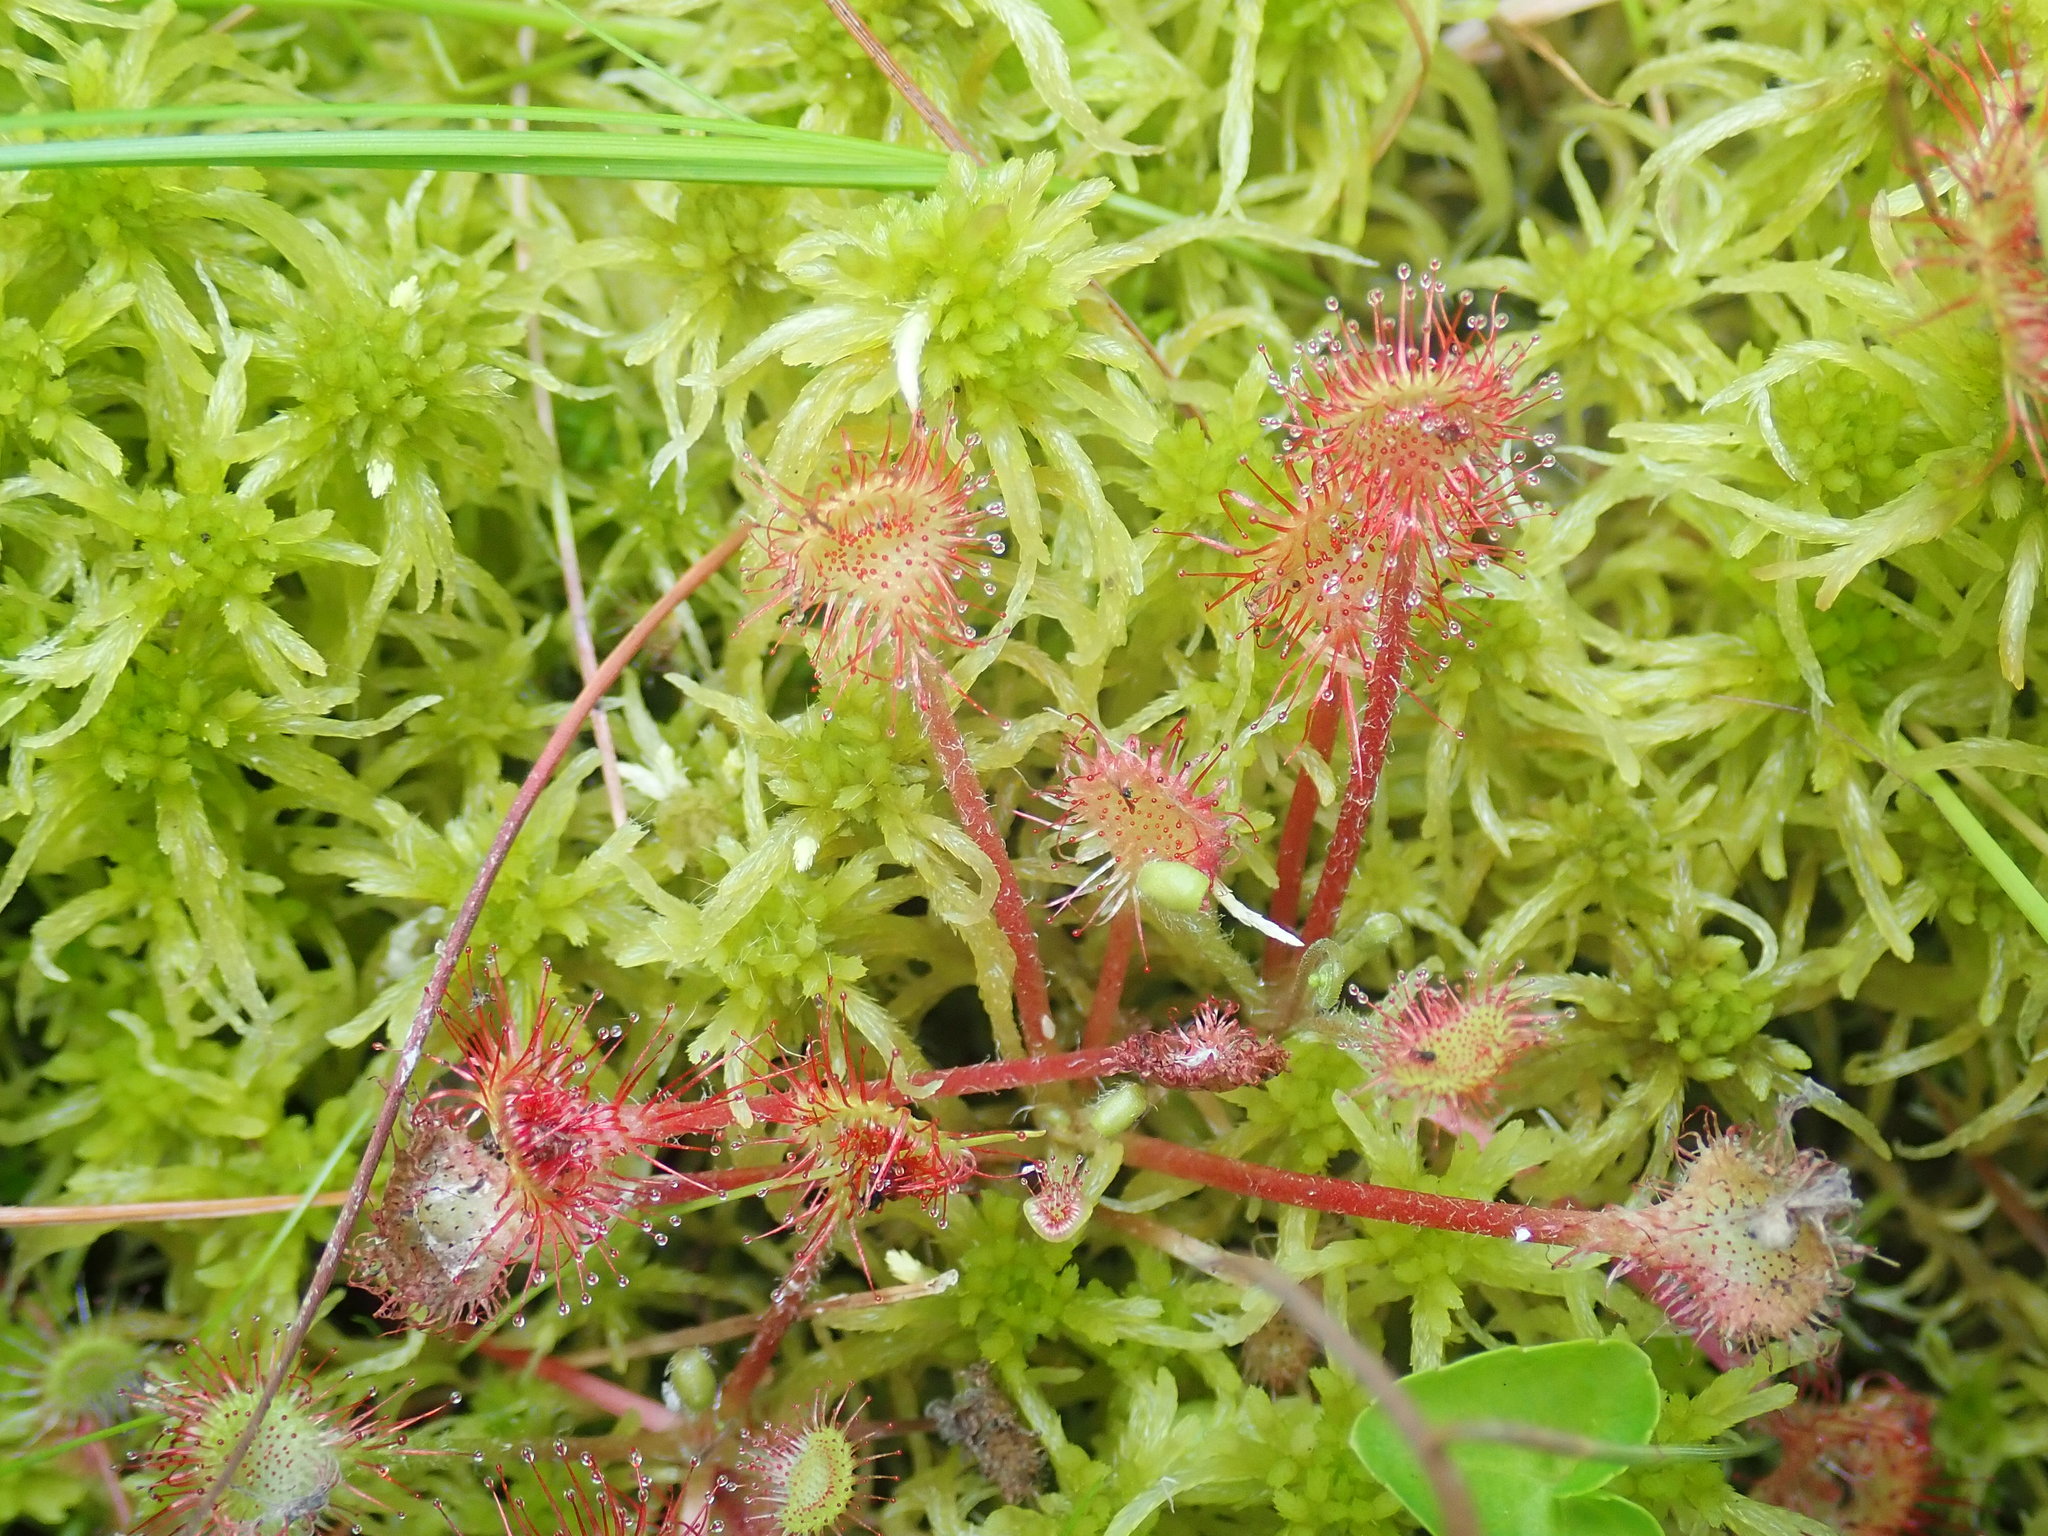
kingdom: Plantae
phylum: Tracheophyta
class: Magnoliopsida
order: Caryophyllales
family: Droseraceae
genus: Drosera
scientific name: Drosera rotundifolia
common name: Round-leaved sundew
